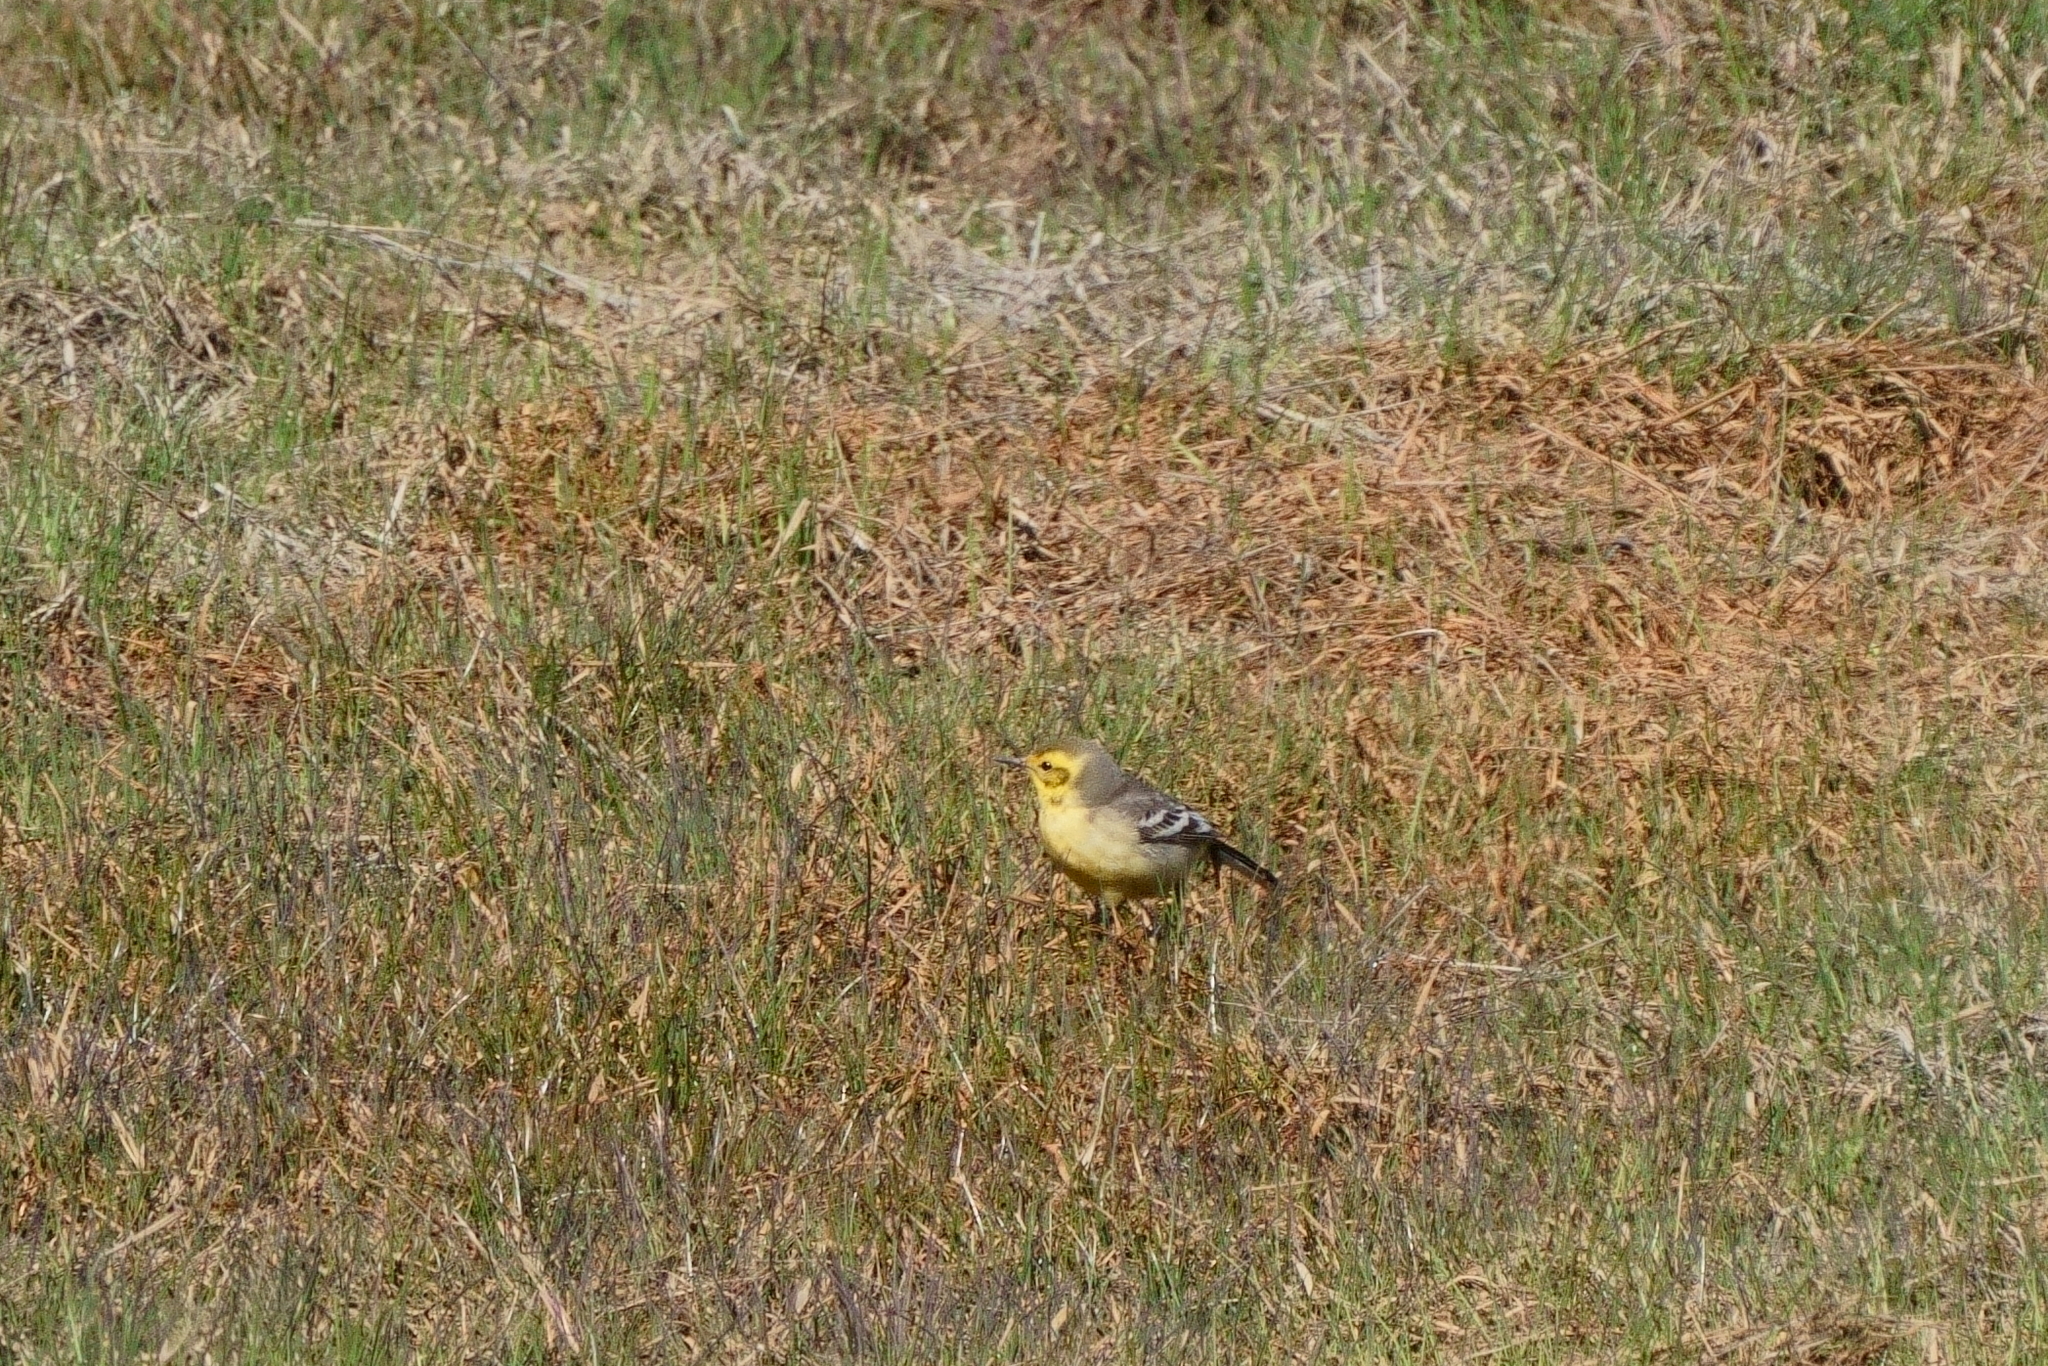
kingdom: Animalia
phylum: Chordata
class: Aves
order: Passeriformes
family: Motacillidae
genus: Motacilla
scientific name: Motacilla citreola
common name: Citrine wagtail
